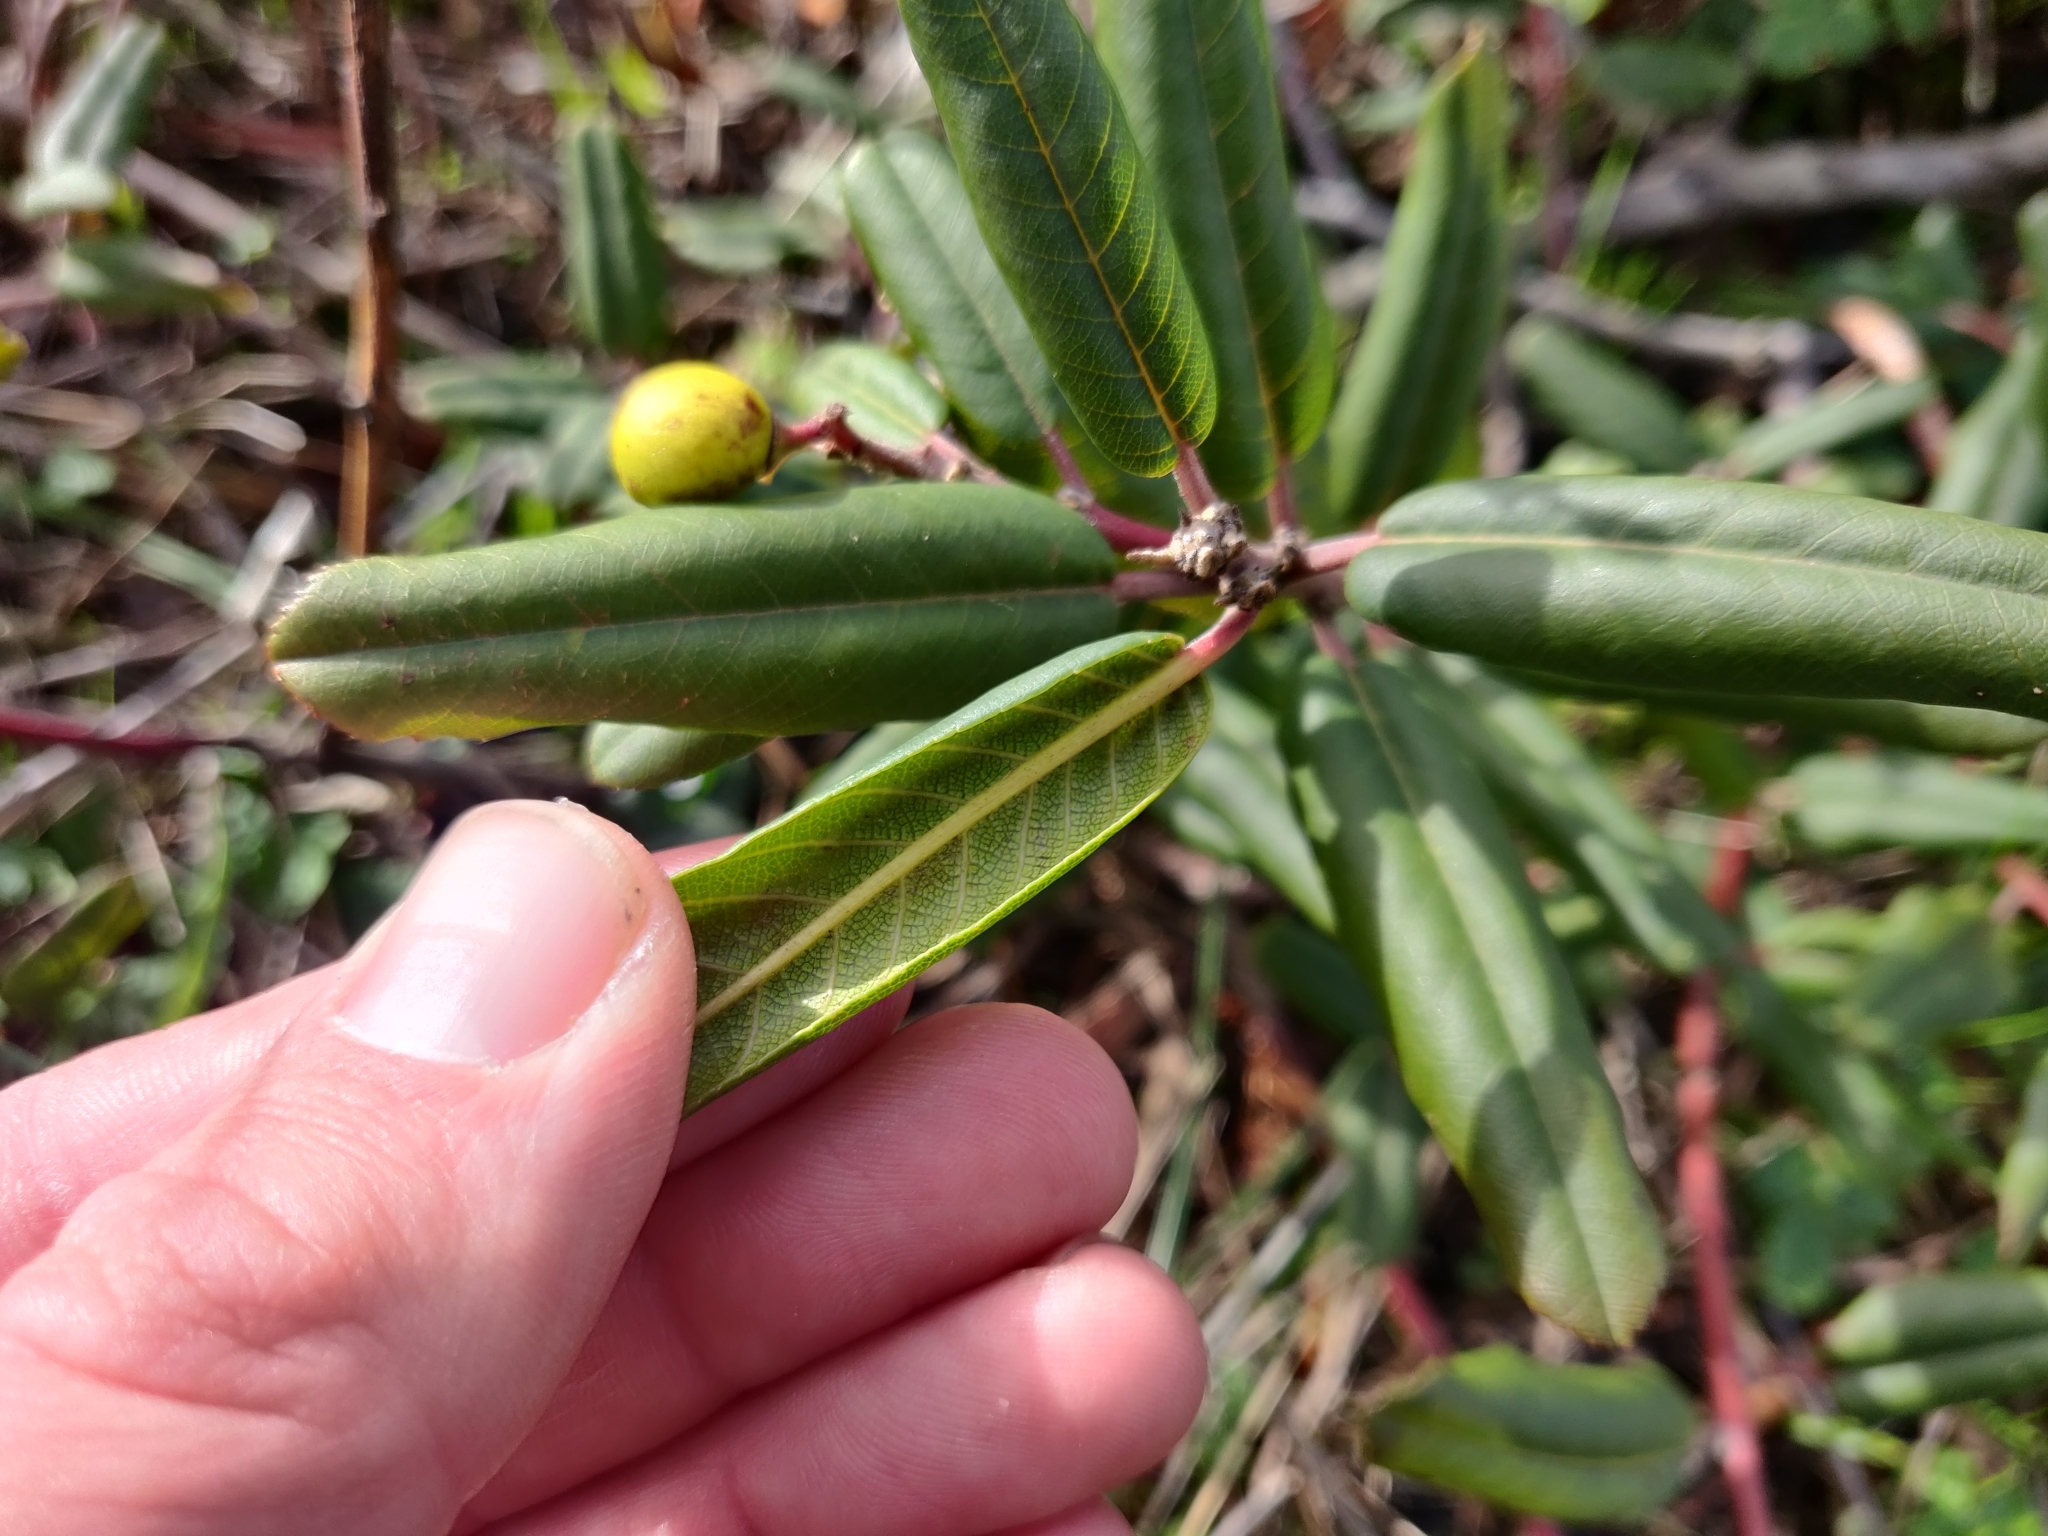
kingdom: Plantae
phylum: Tracheophyta
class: Magnoliopsida
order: Rosales
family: Rhamnaceae
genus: Frangula
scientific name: Frangula californica
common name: California buckthorn
